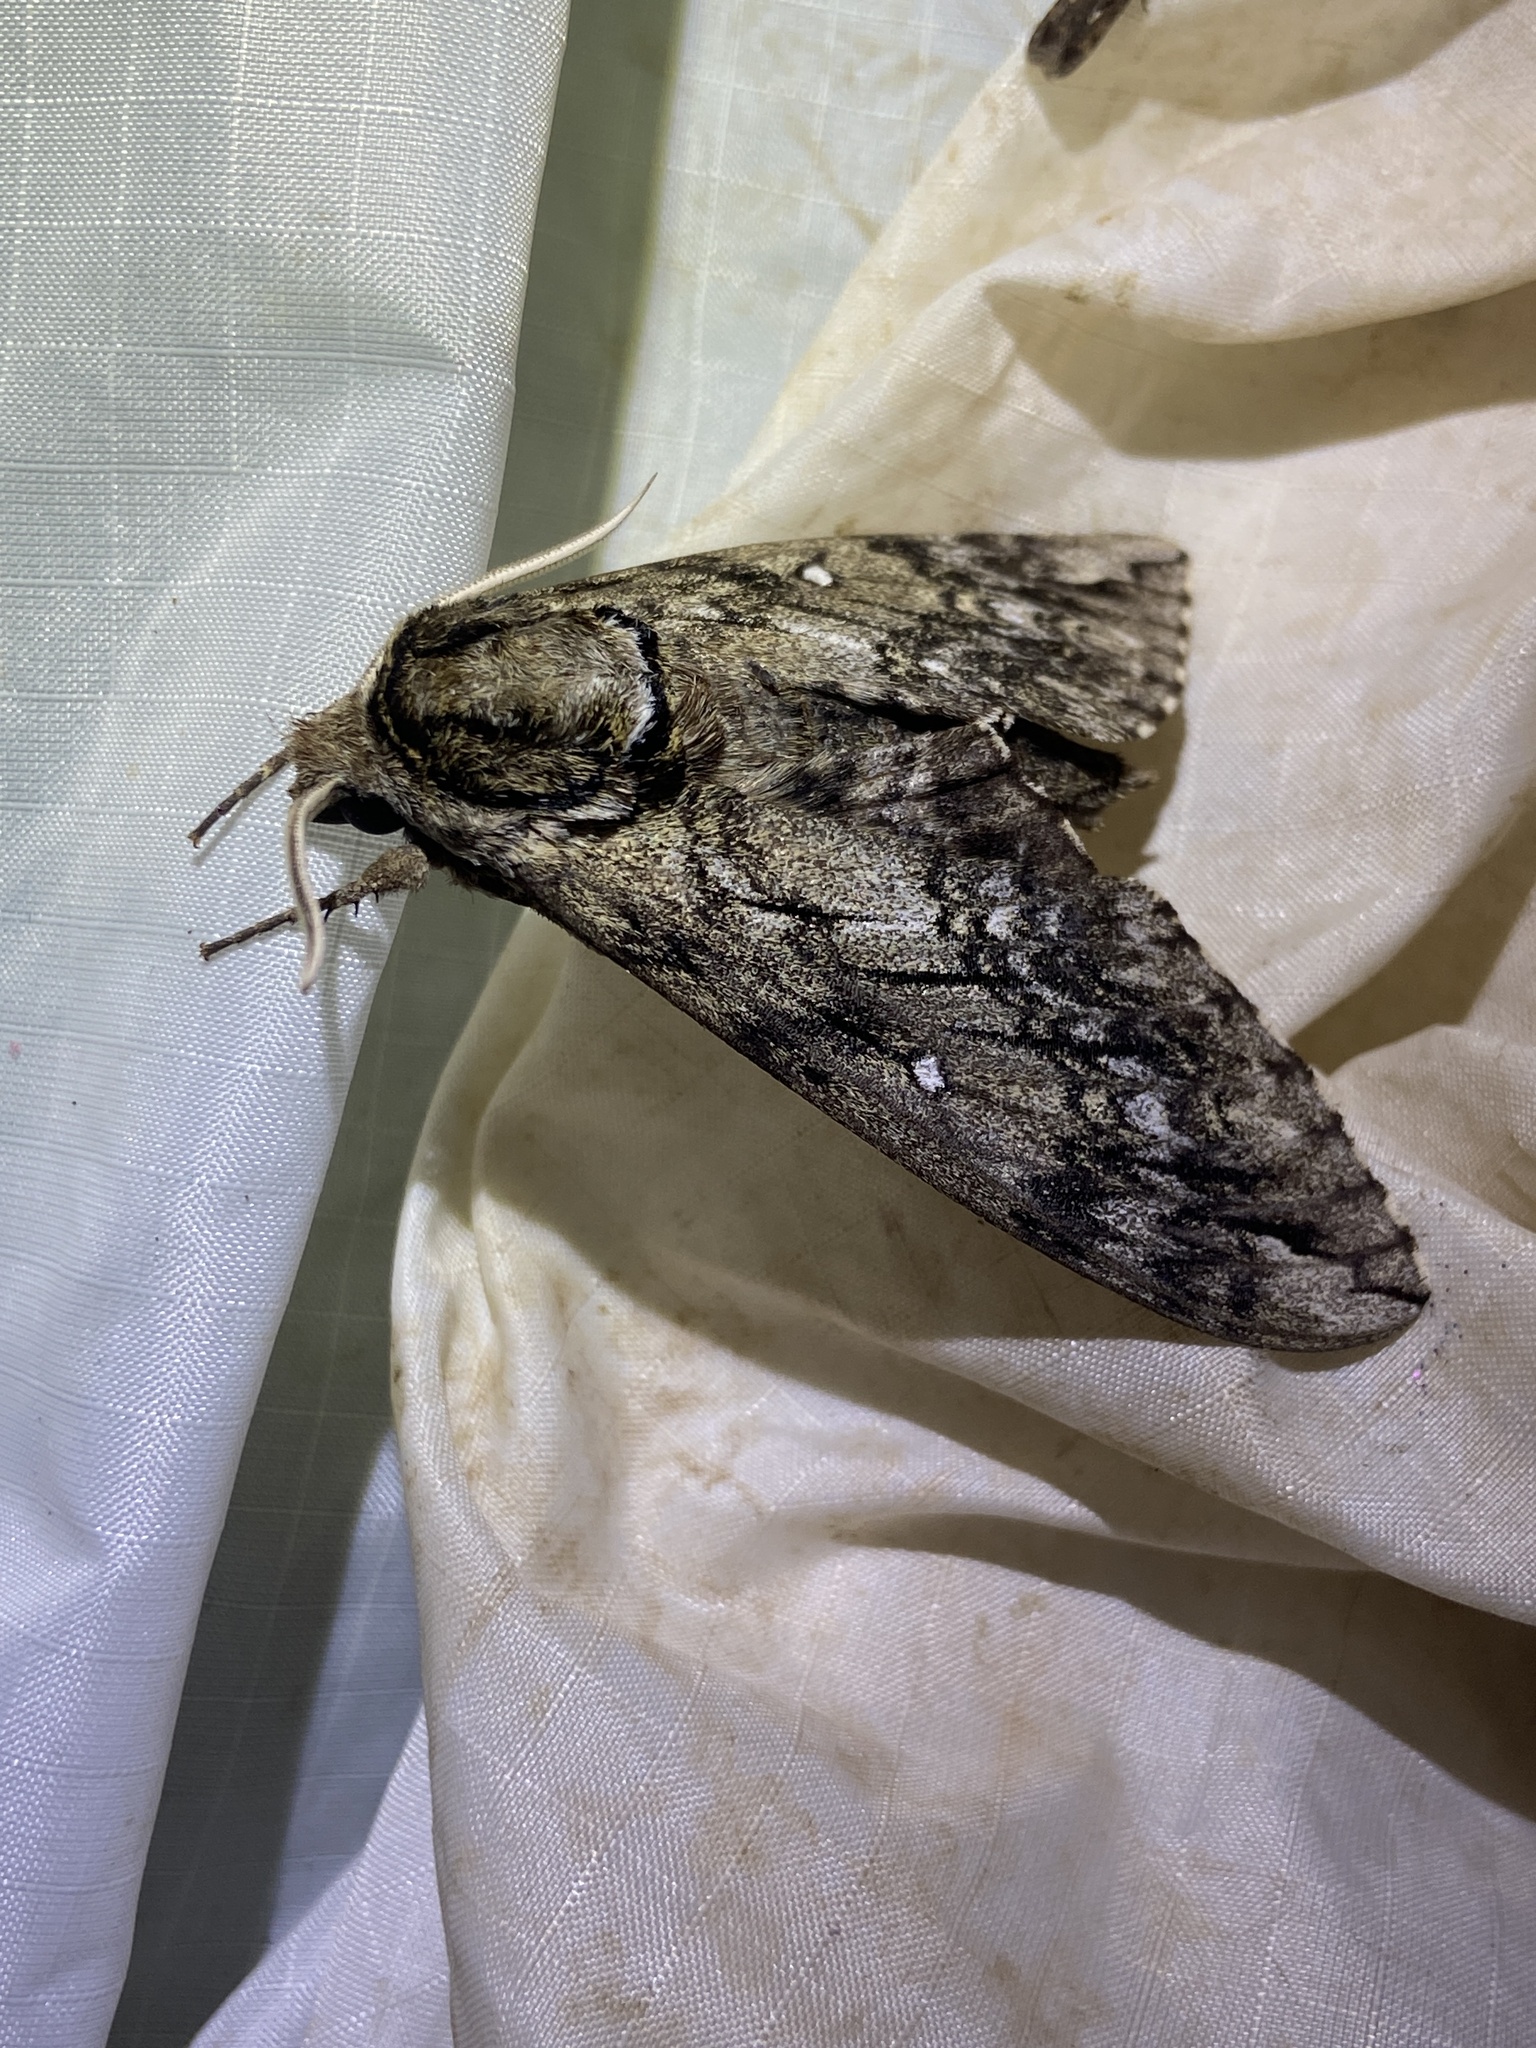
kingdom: Animalia
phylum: Arthropoda
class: Insecta
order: Lepidoptera
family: Sphingidae
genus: Ceratomia
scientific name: Ceratomia undulosa
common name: Waved sphinx
